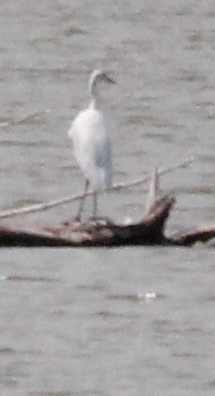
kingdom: Animalia
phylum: Chordata
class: Aves
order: Pelecaniformes
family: Ardeidae
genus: Ardea
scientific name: Ardea alba
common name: Great egret
